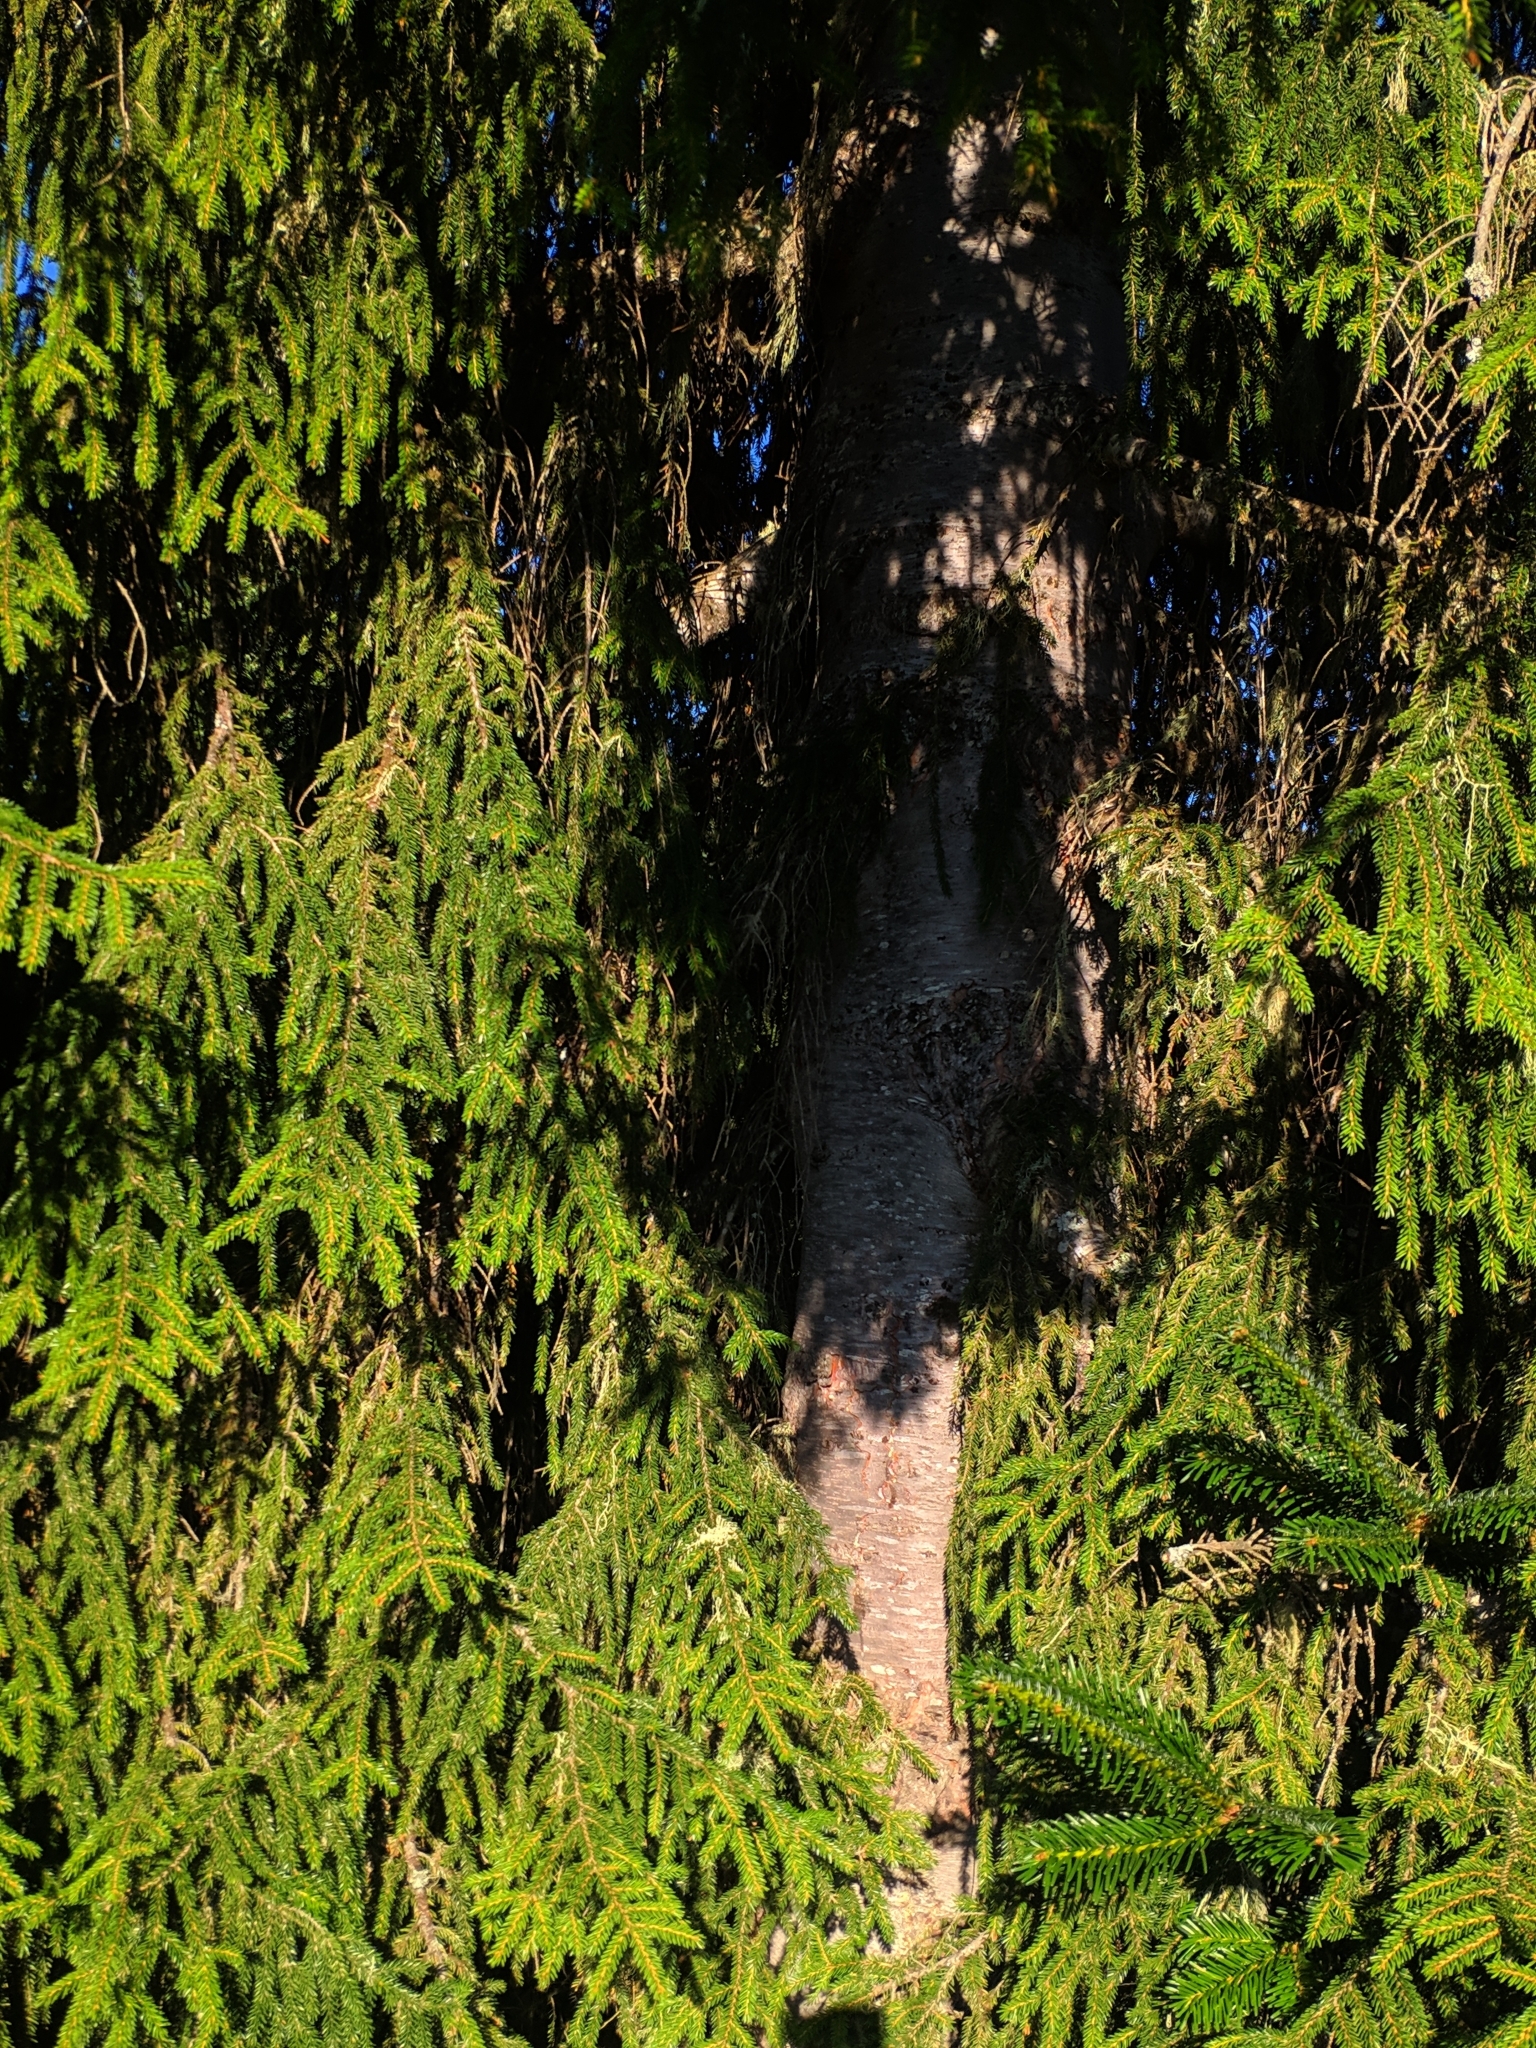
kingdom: Plantae
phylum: Tracheophyta
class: Pinopsida
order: Pinales
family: Pinaceae
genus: Picea
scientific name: Picea orientalis
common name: Oriental spruce
